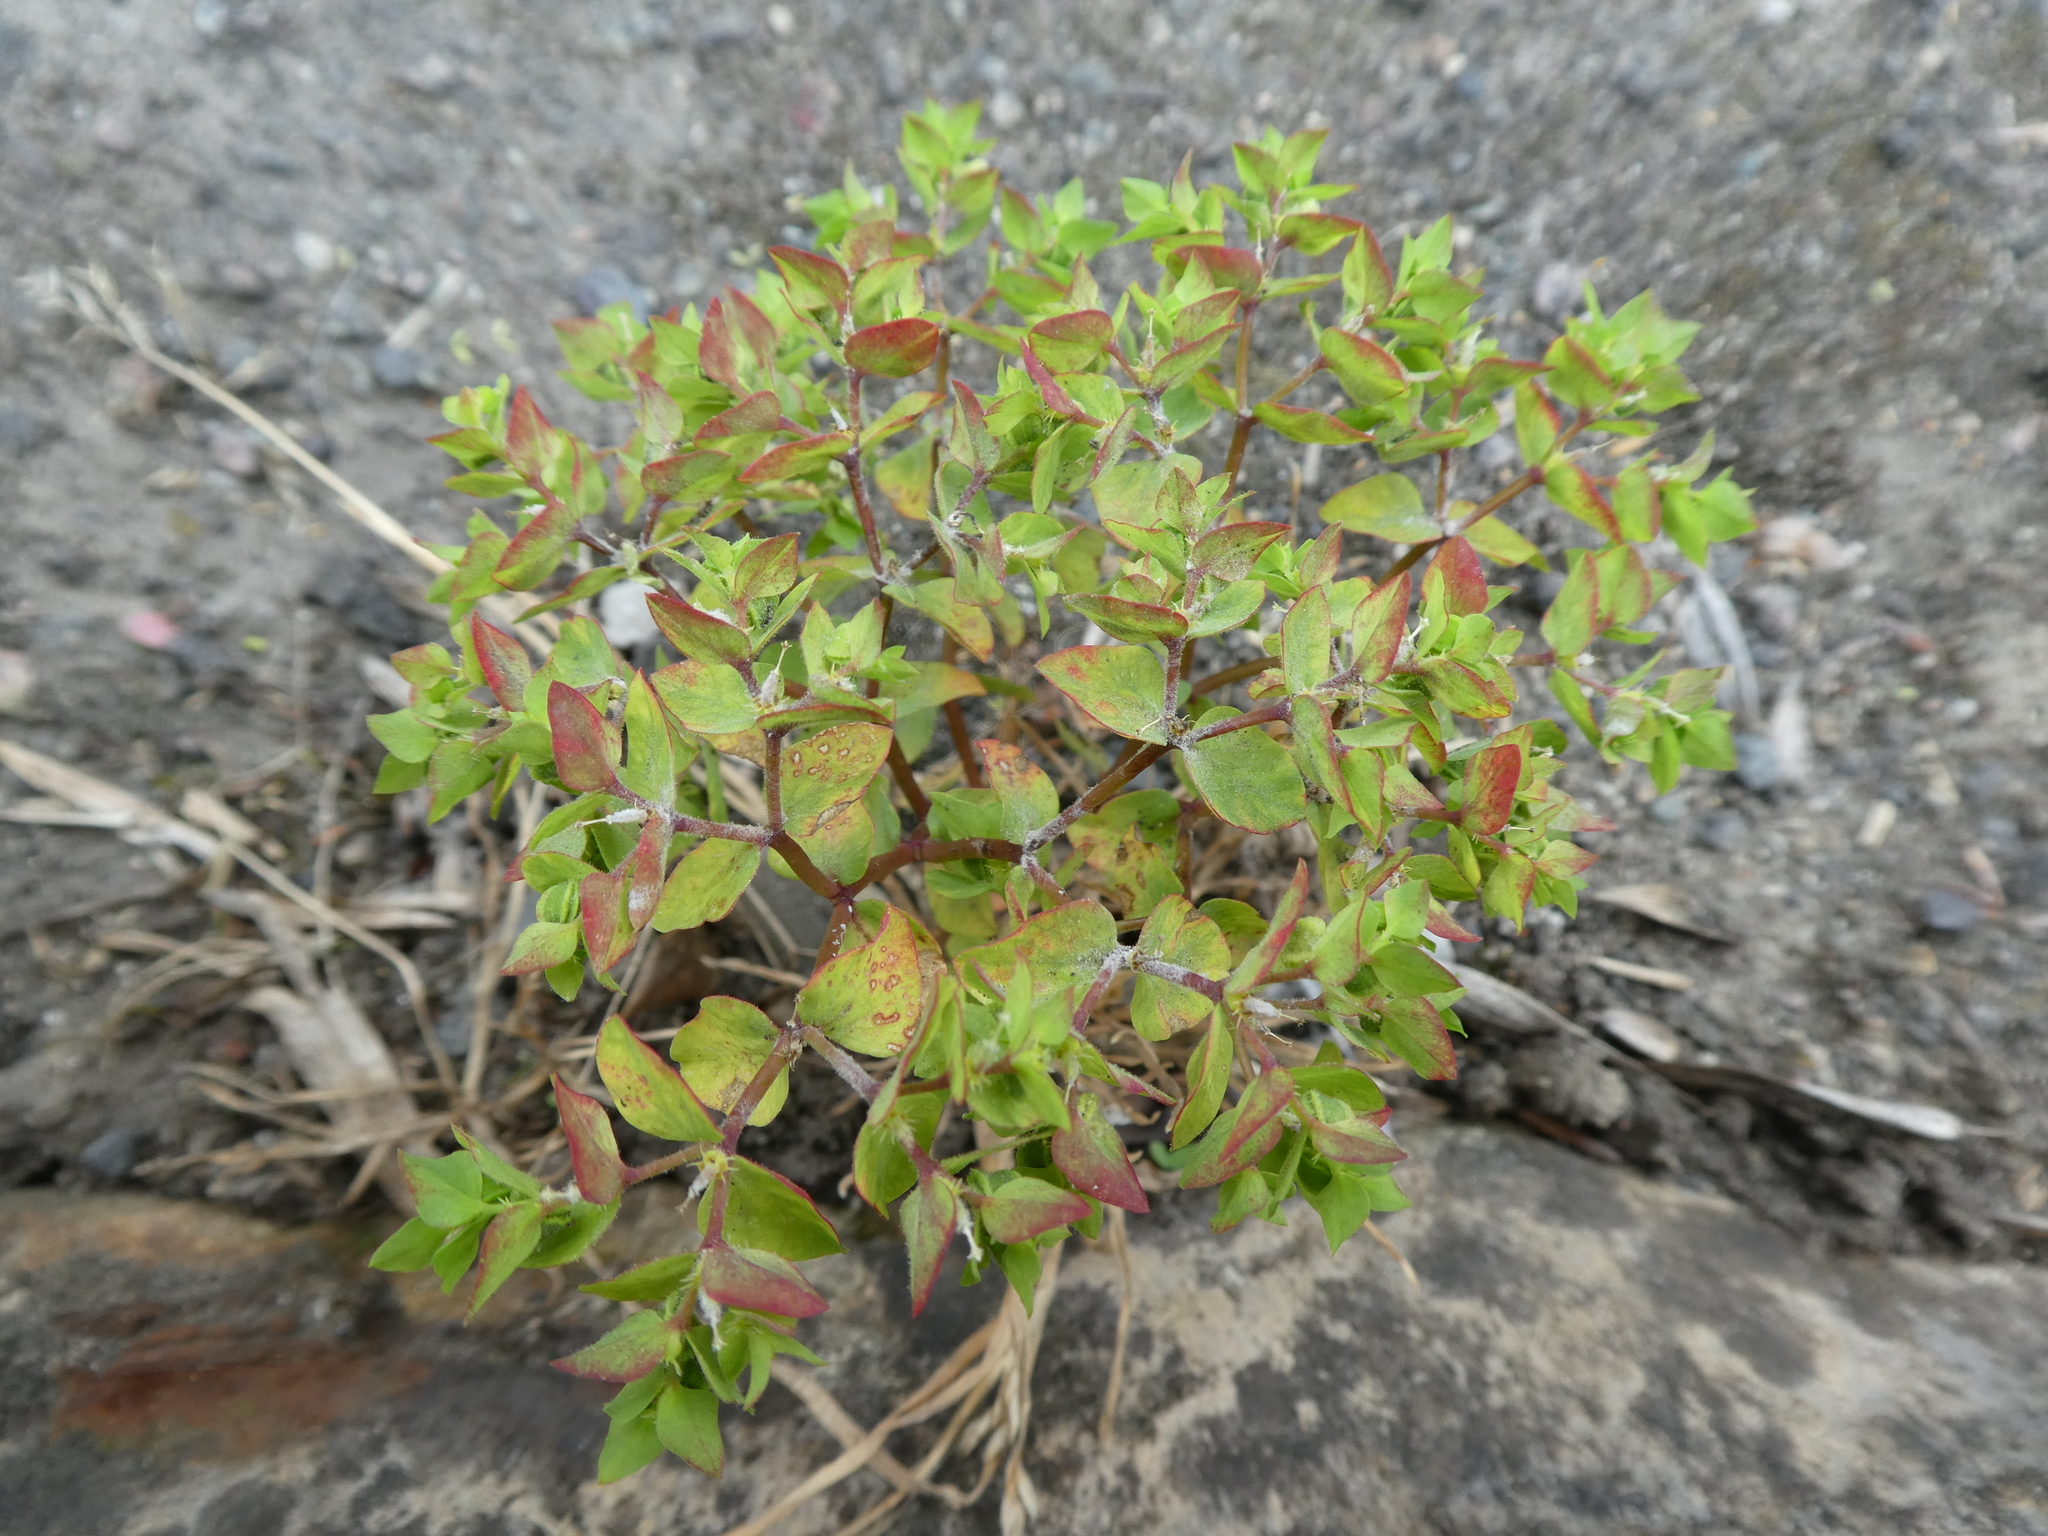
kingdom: Plantae
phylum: Tracheophyta
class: Magnoliopsida
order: Malpighiales
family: Euphorbiaceae
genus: Euphorbia
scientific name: Euphorbia peplus
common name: Petty spurge
